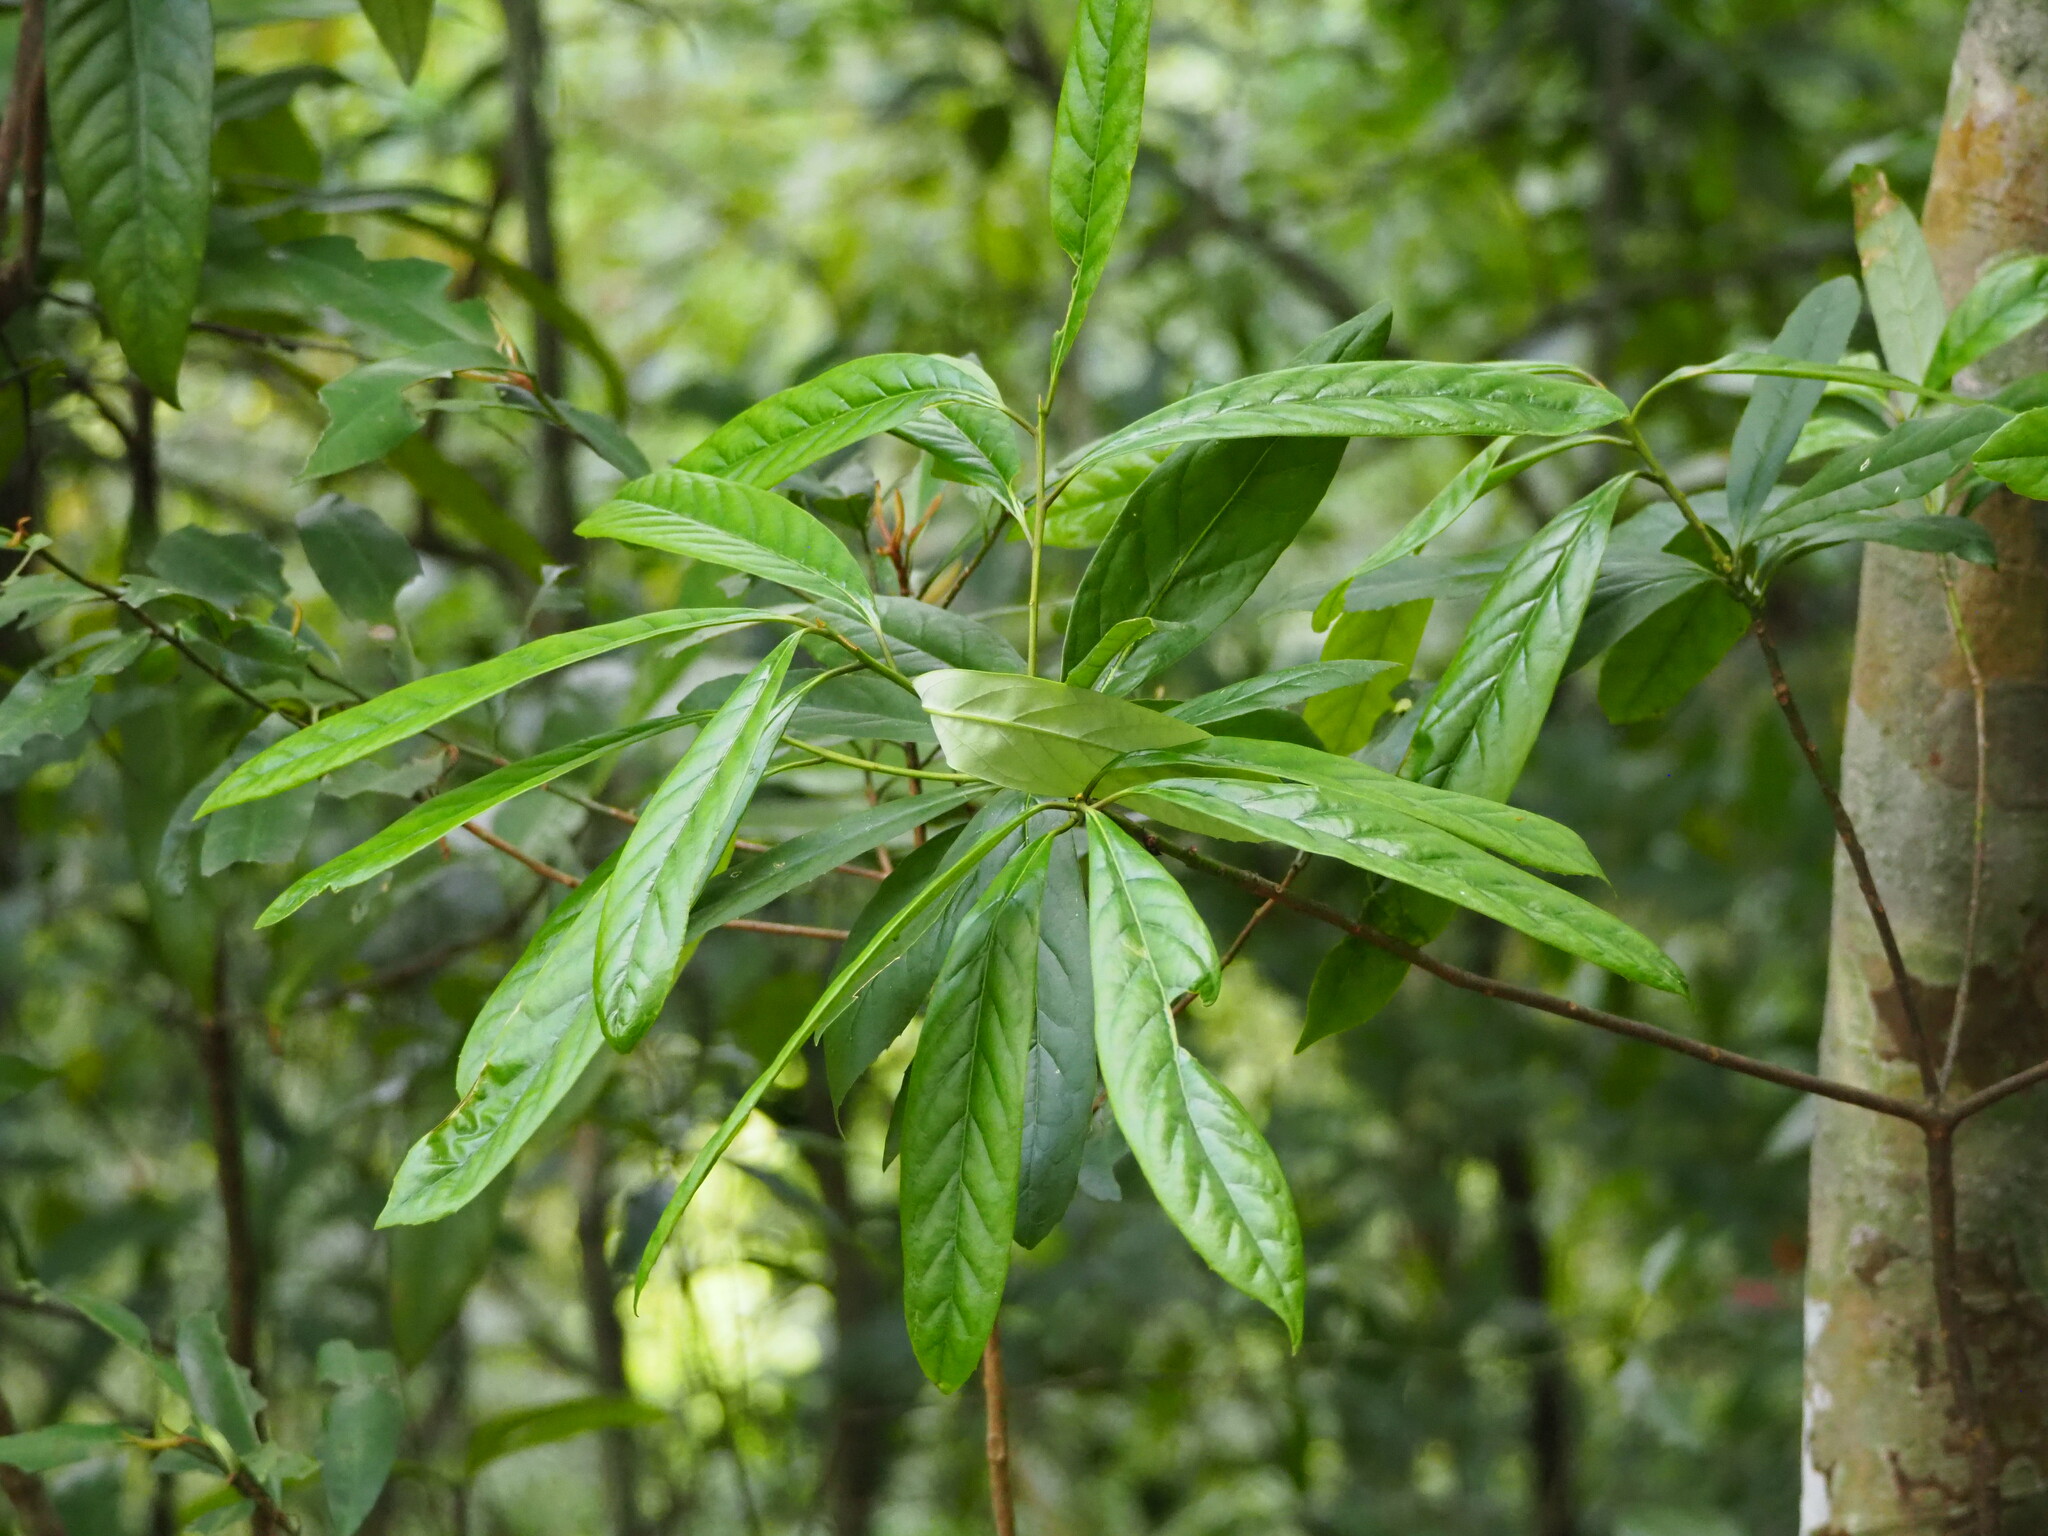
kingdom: Plantae
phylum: Tracheophyta
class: Magnoliopsida
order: Ericales
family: Symplocaceae
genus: Symplocos
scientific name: Symplocos glauca
